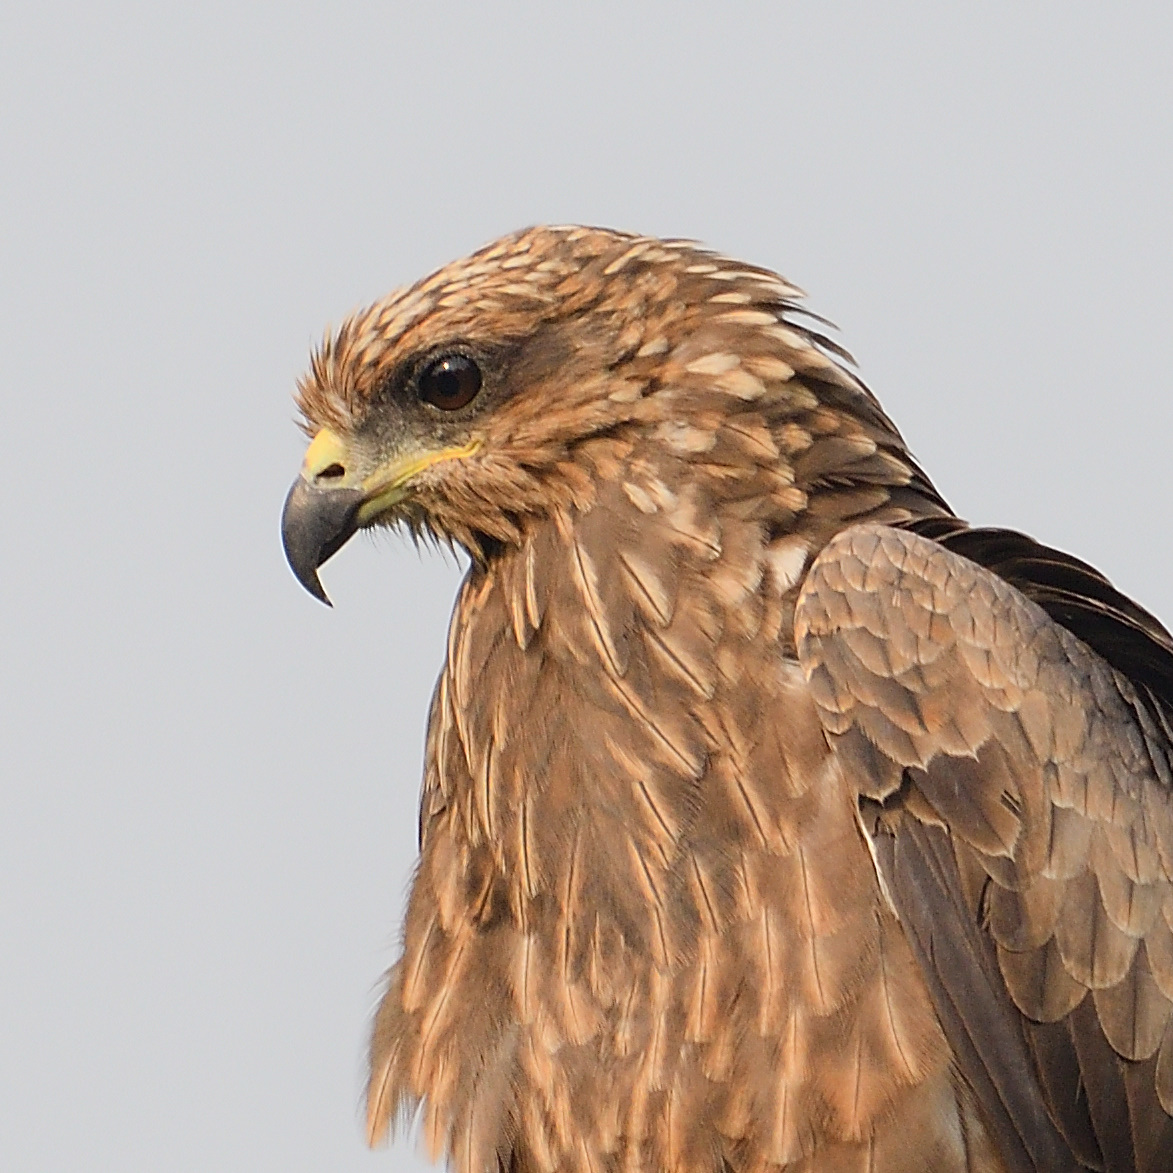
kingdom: Animalia
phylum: Chordata
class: Aves
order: Accipitriformes
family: Accipitridae
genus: Milvus
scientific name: Milvus migrans
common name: Black kite
